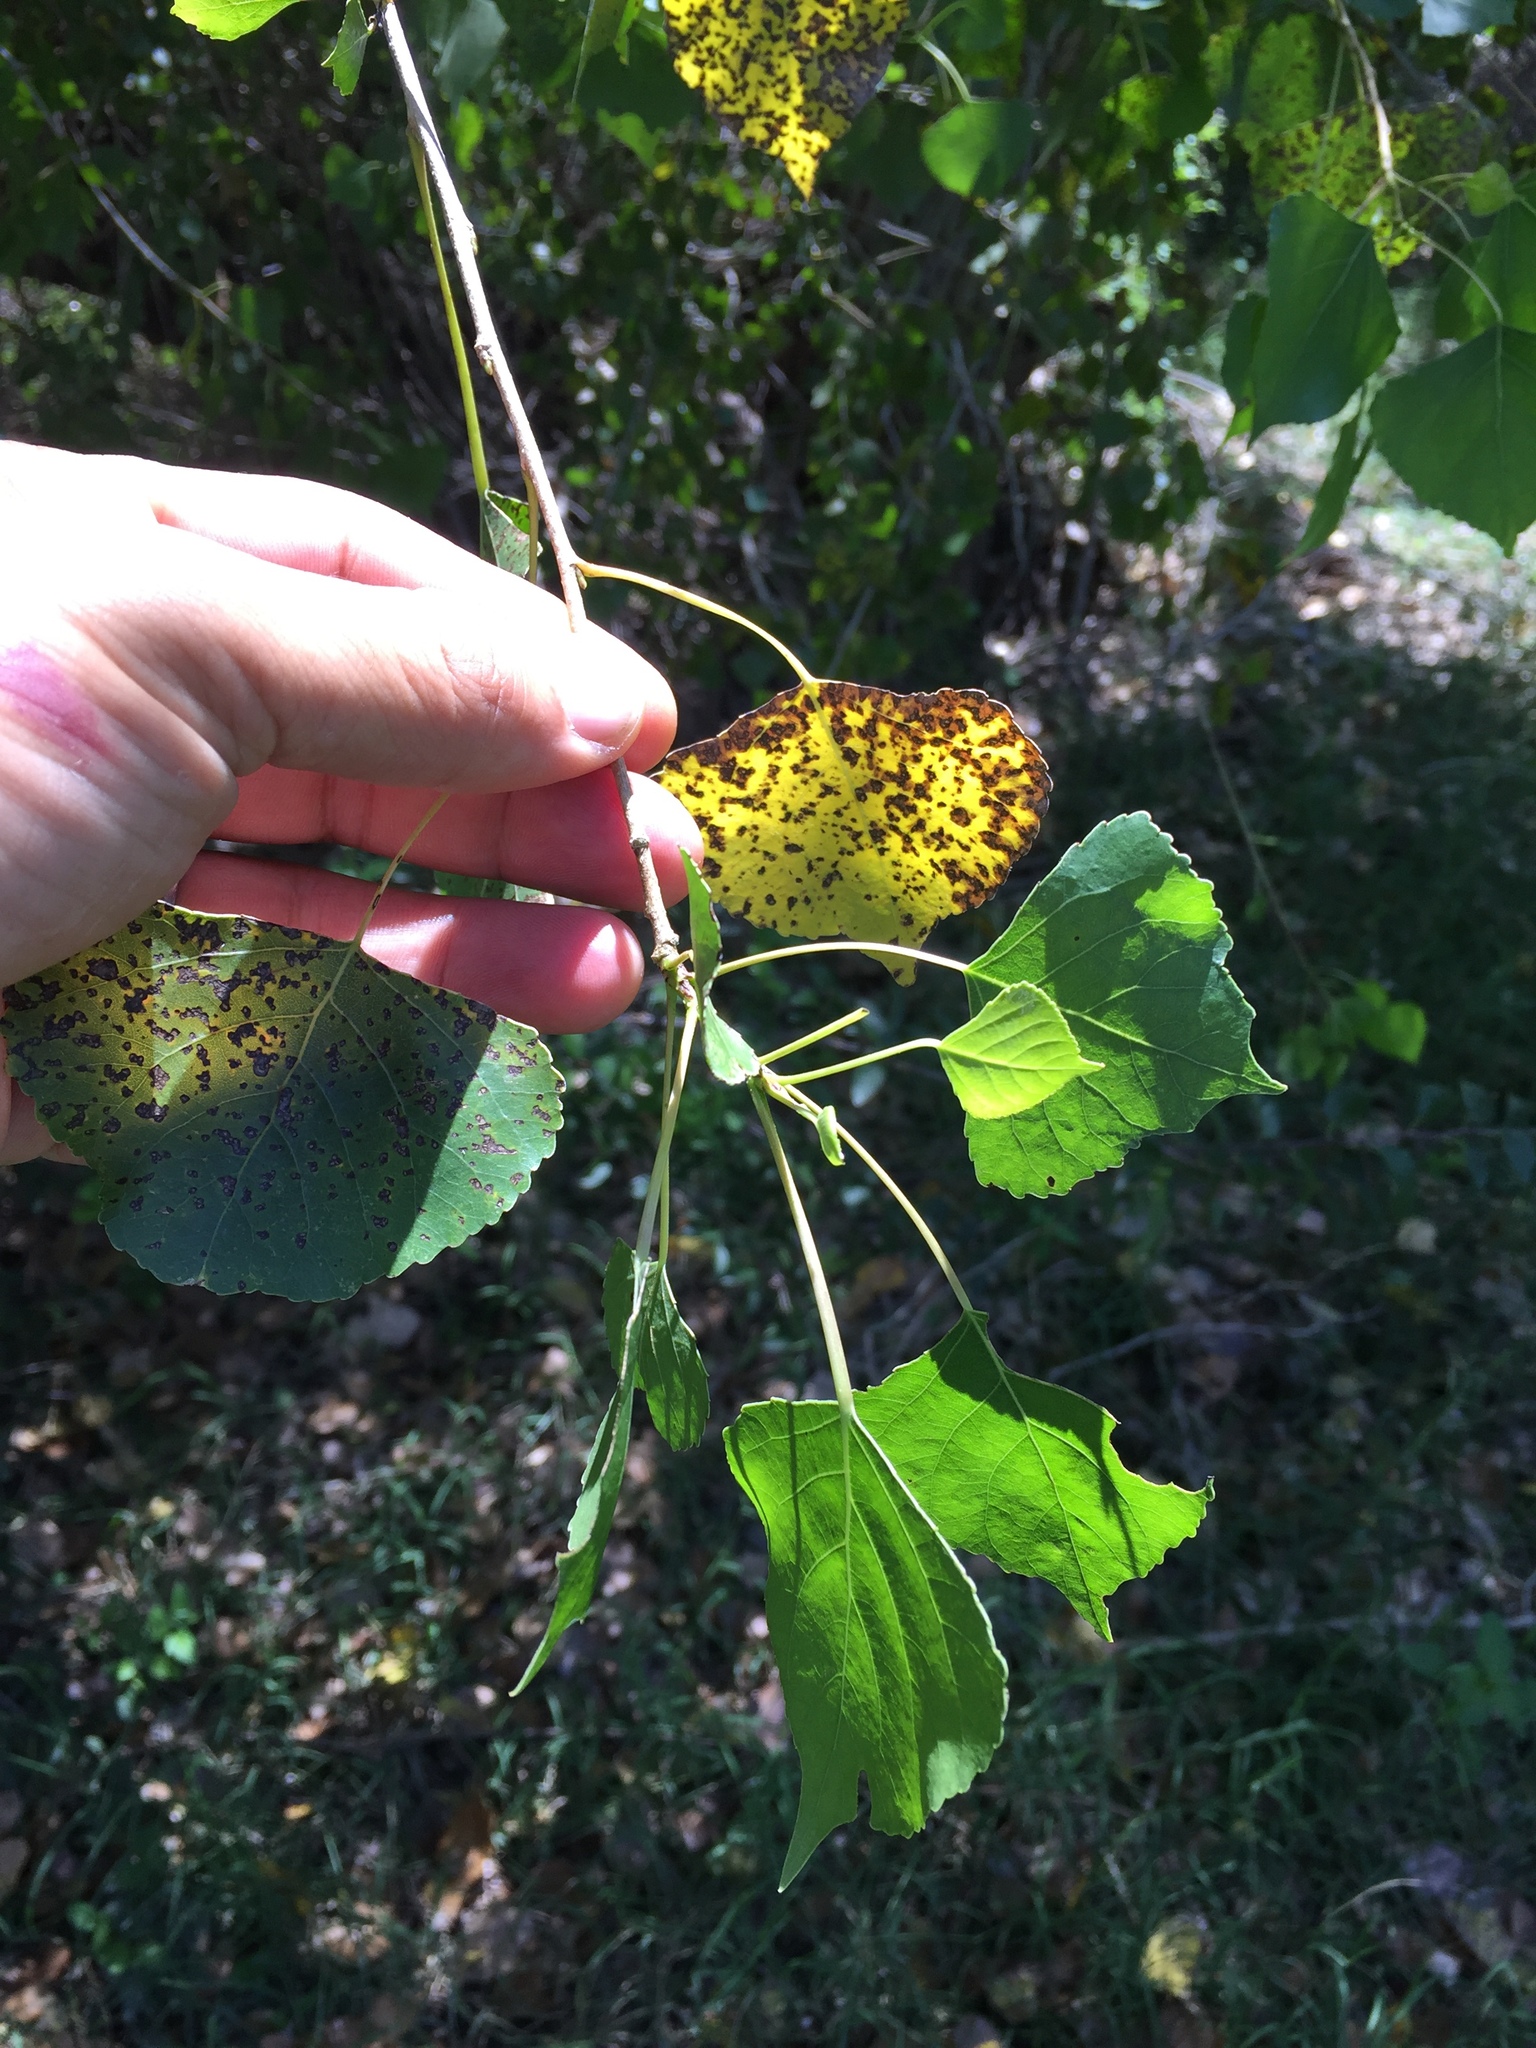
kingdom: Plantae
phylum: Tracheophyta
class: Magnoliopsida
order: Malpighiales
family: Salicaceae
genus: Populus
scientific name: Populus fremontii
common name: Fremont's cottonwood
